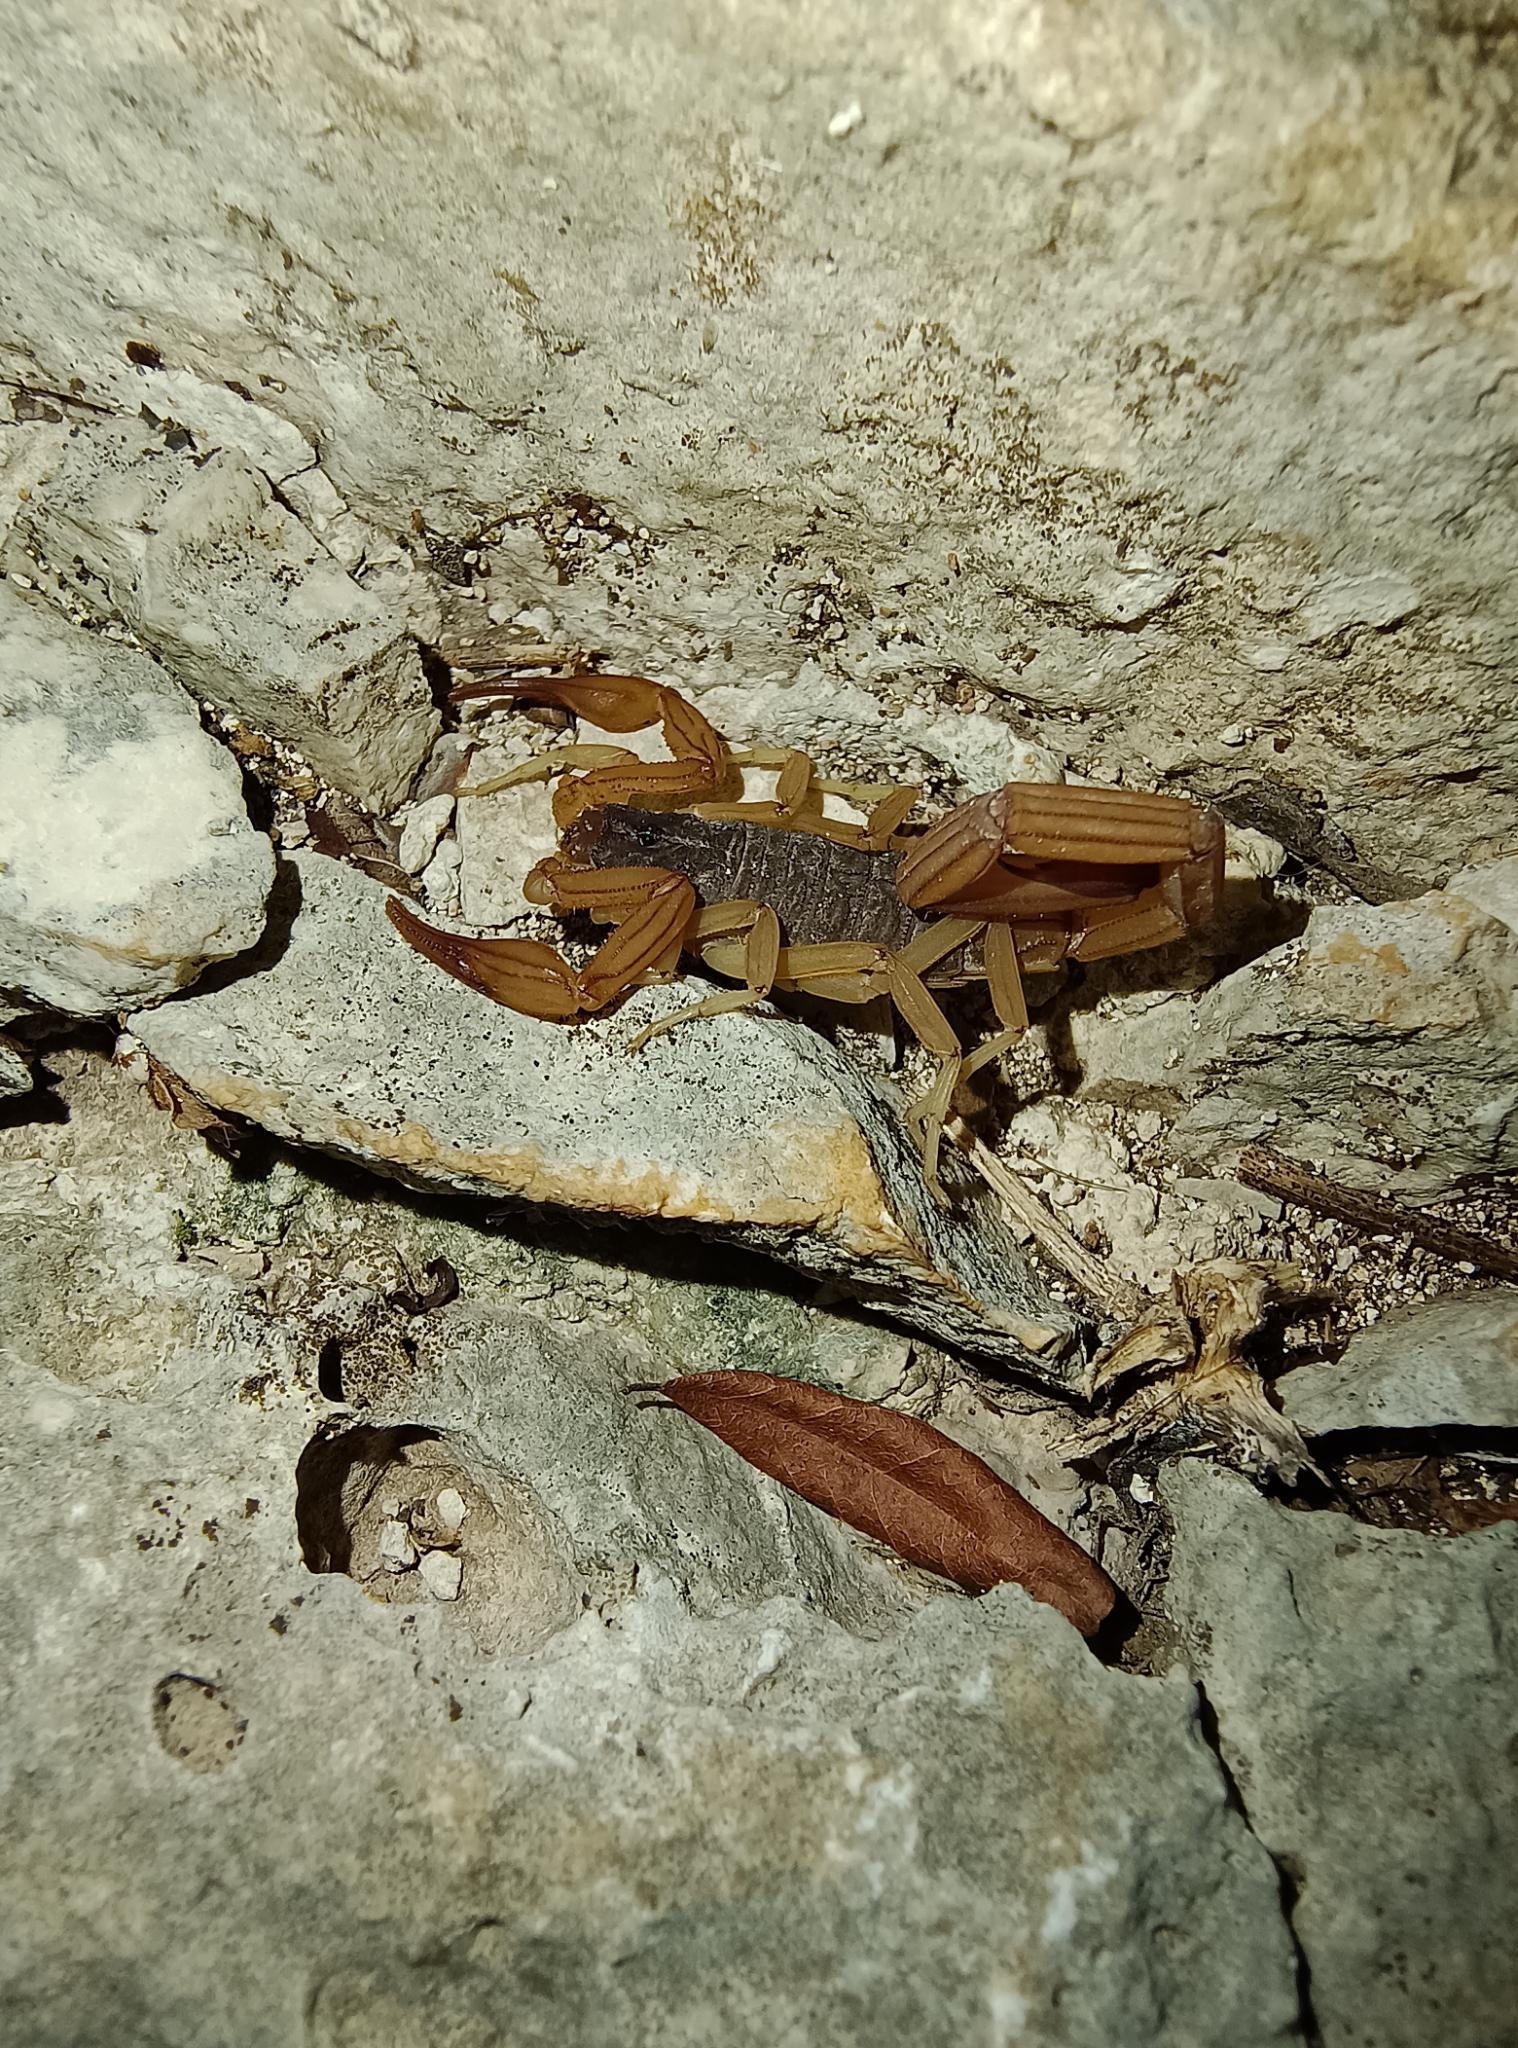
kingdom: Animalia
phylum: Arthropoda
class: Arachnida
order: Scorpiones
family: Buthidae
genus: Centruroides
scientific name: Centruroides ochraceus
